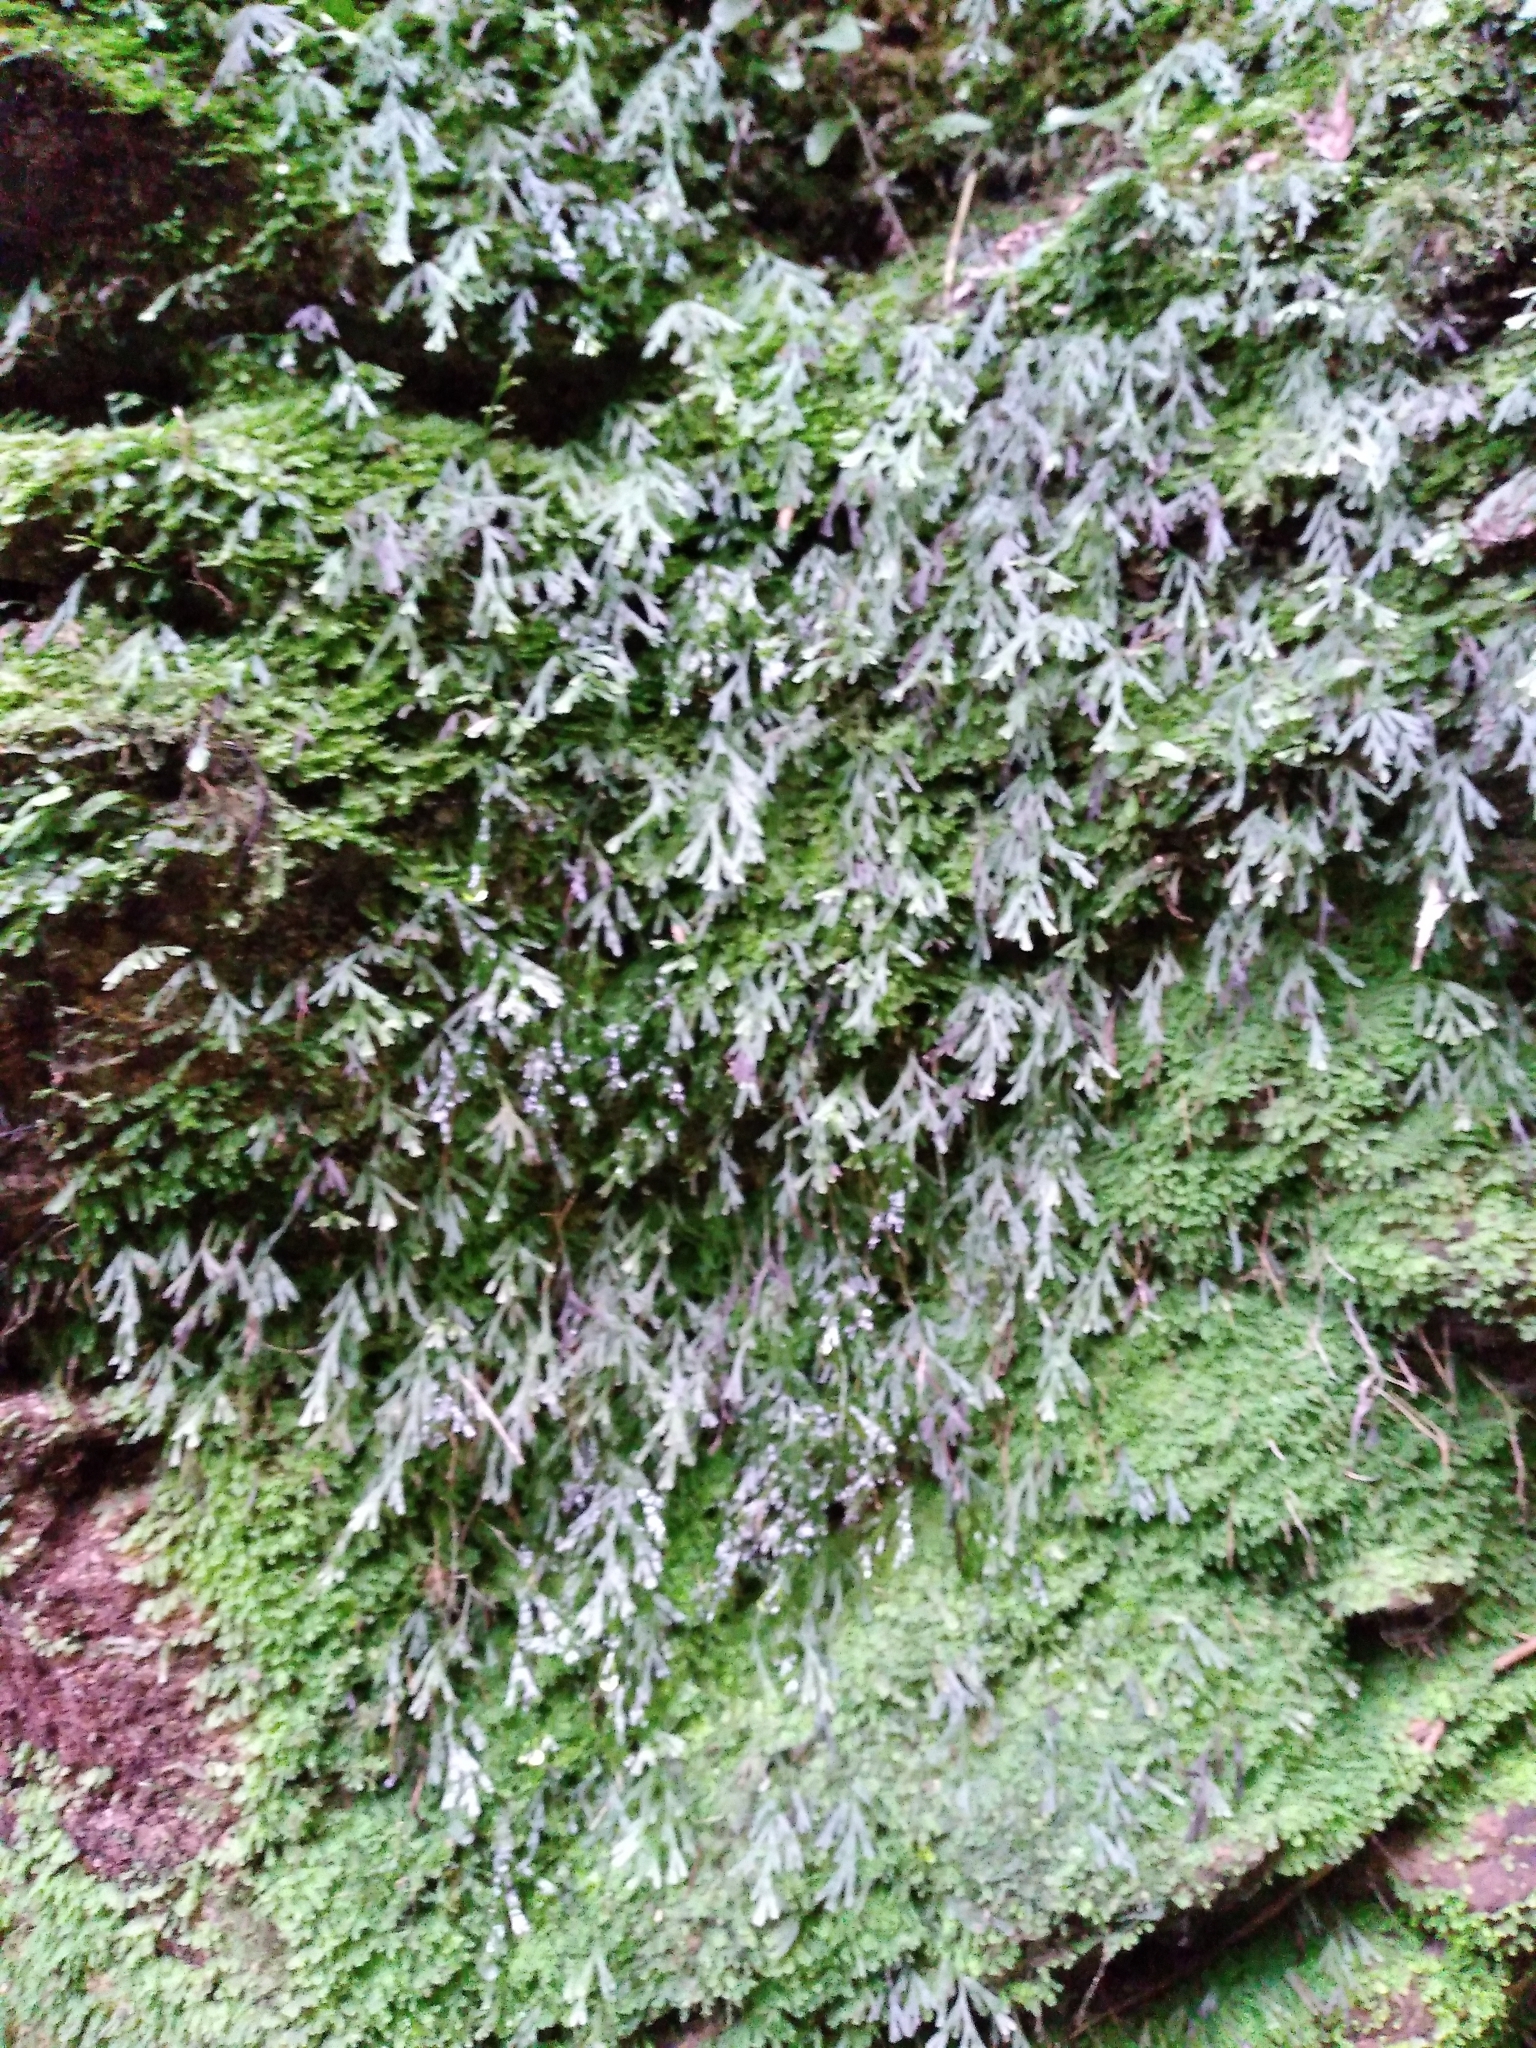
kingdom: Plantae
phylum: Tracheophyta
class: Polypodiopsida
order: Hymenophyllales
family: Hymenophyllaceae
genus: Polyphlebium
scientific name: Polyphlebium endlicherianum
